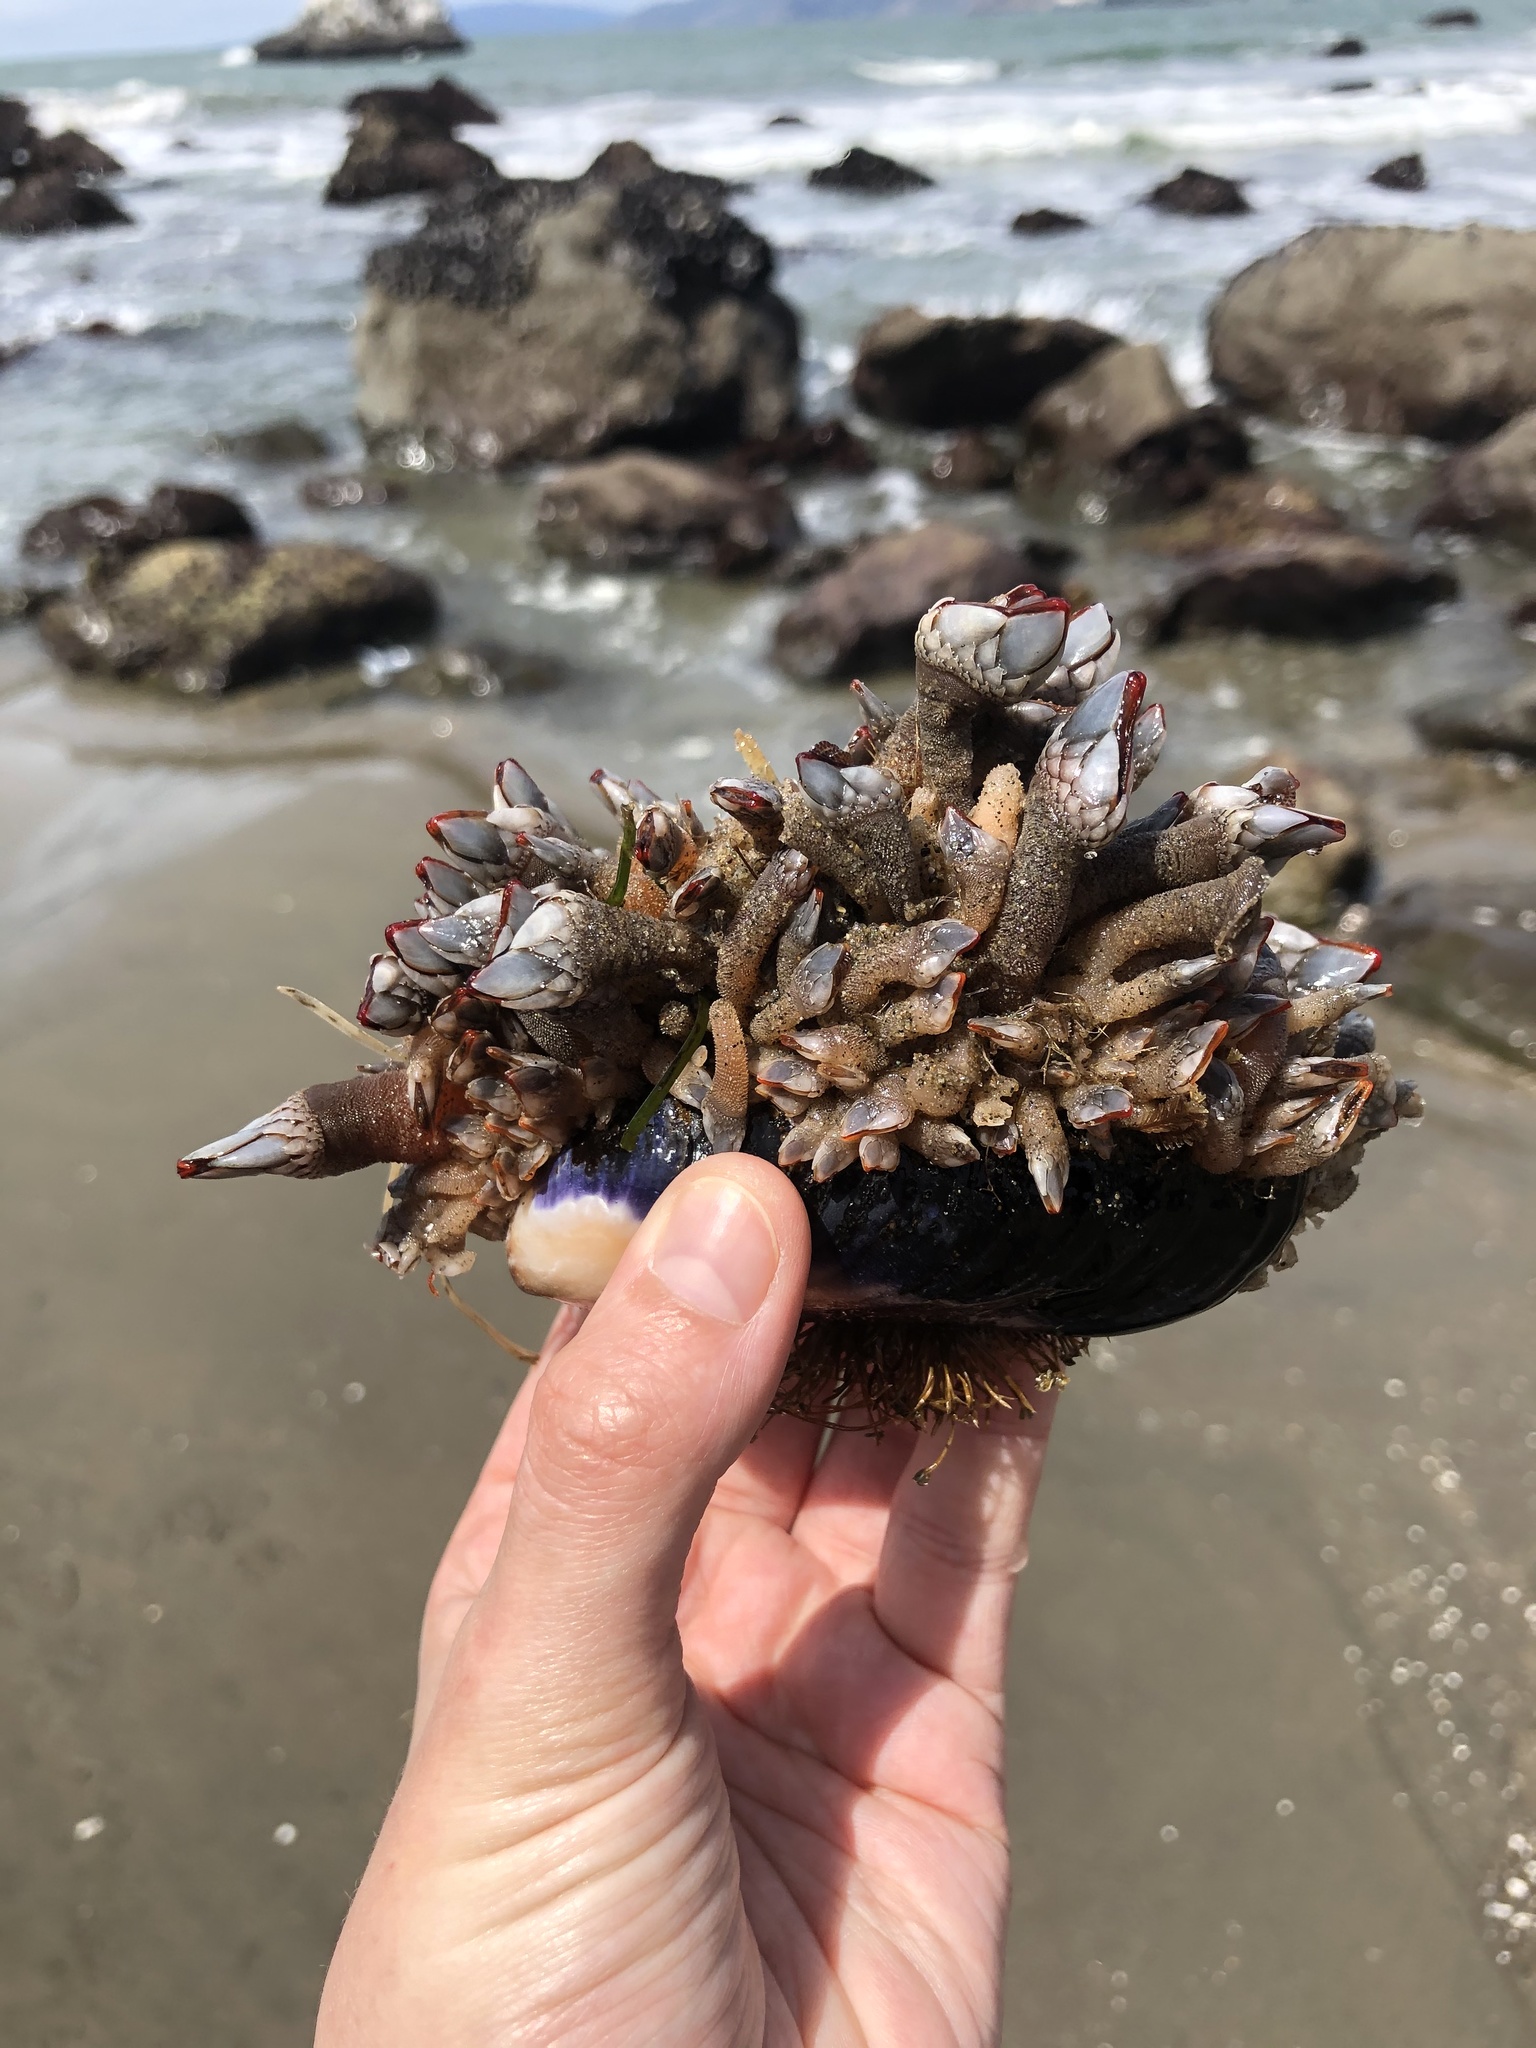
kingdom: Animalia
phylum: Arthropoda
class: Maxillopoda
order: Pedunculata
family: Pollicipedidae
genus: Pollicipes
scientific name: Pollicipes polymerus
